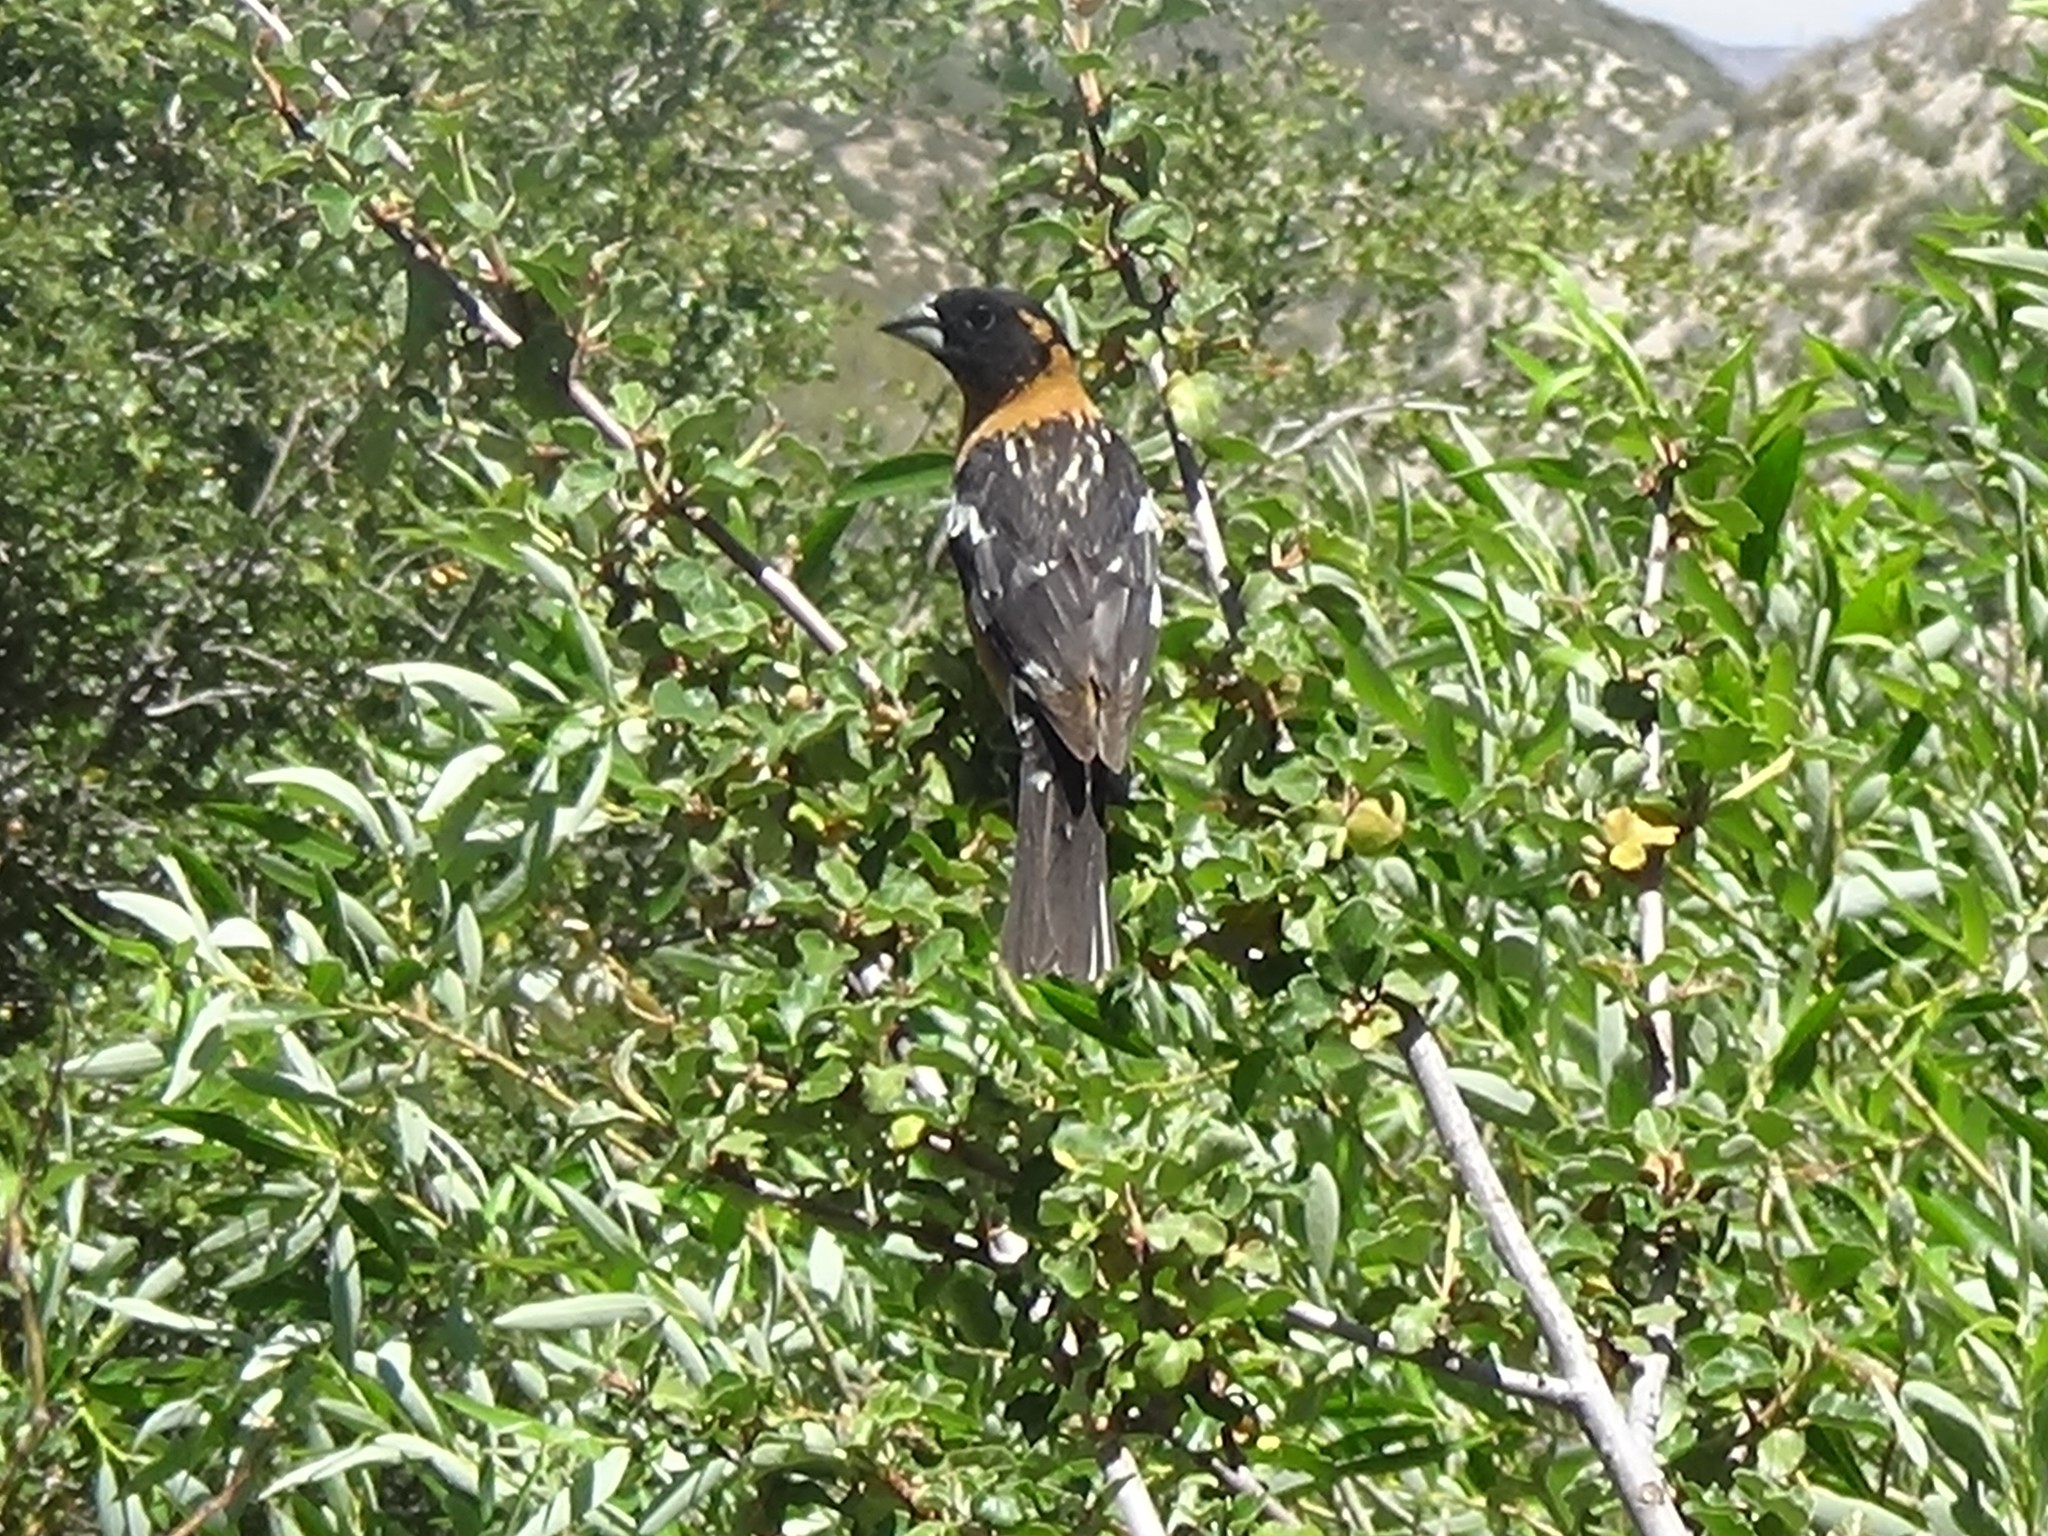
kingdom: Animalia
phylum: Chordata
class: Aves
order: Passeriformes
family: Cardinalidae
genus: Pheucticus
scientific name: Pheucticus melanocephalus
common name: Black-headed grosbeak
